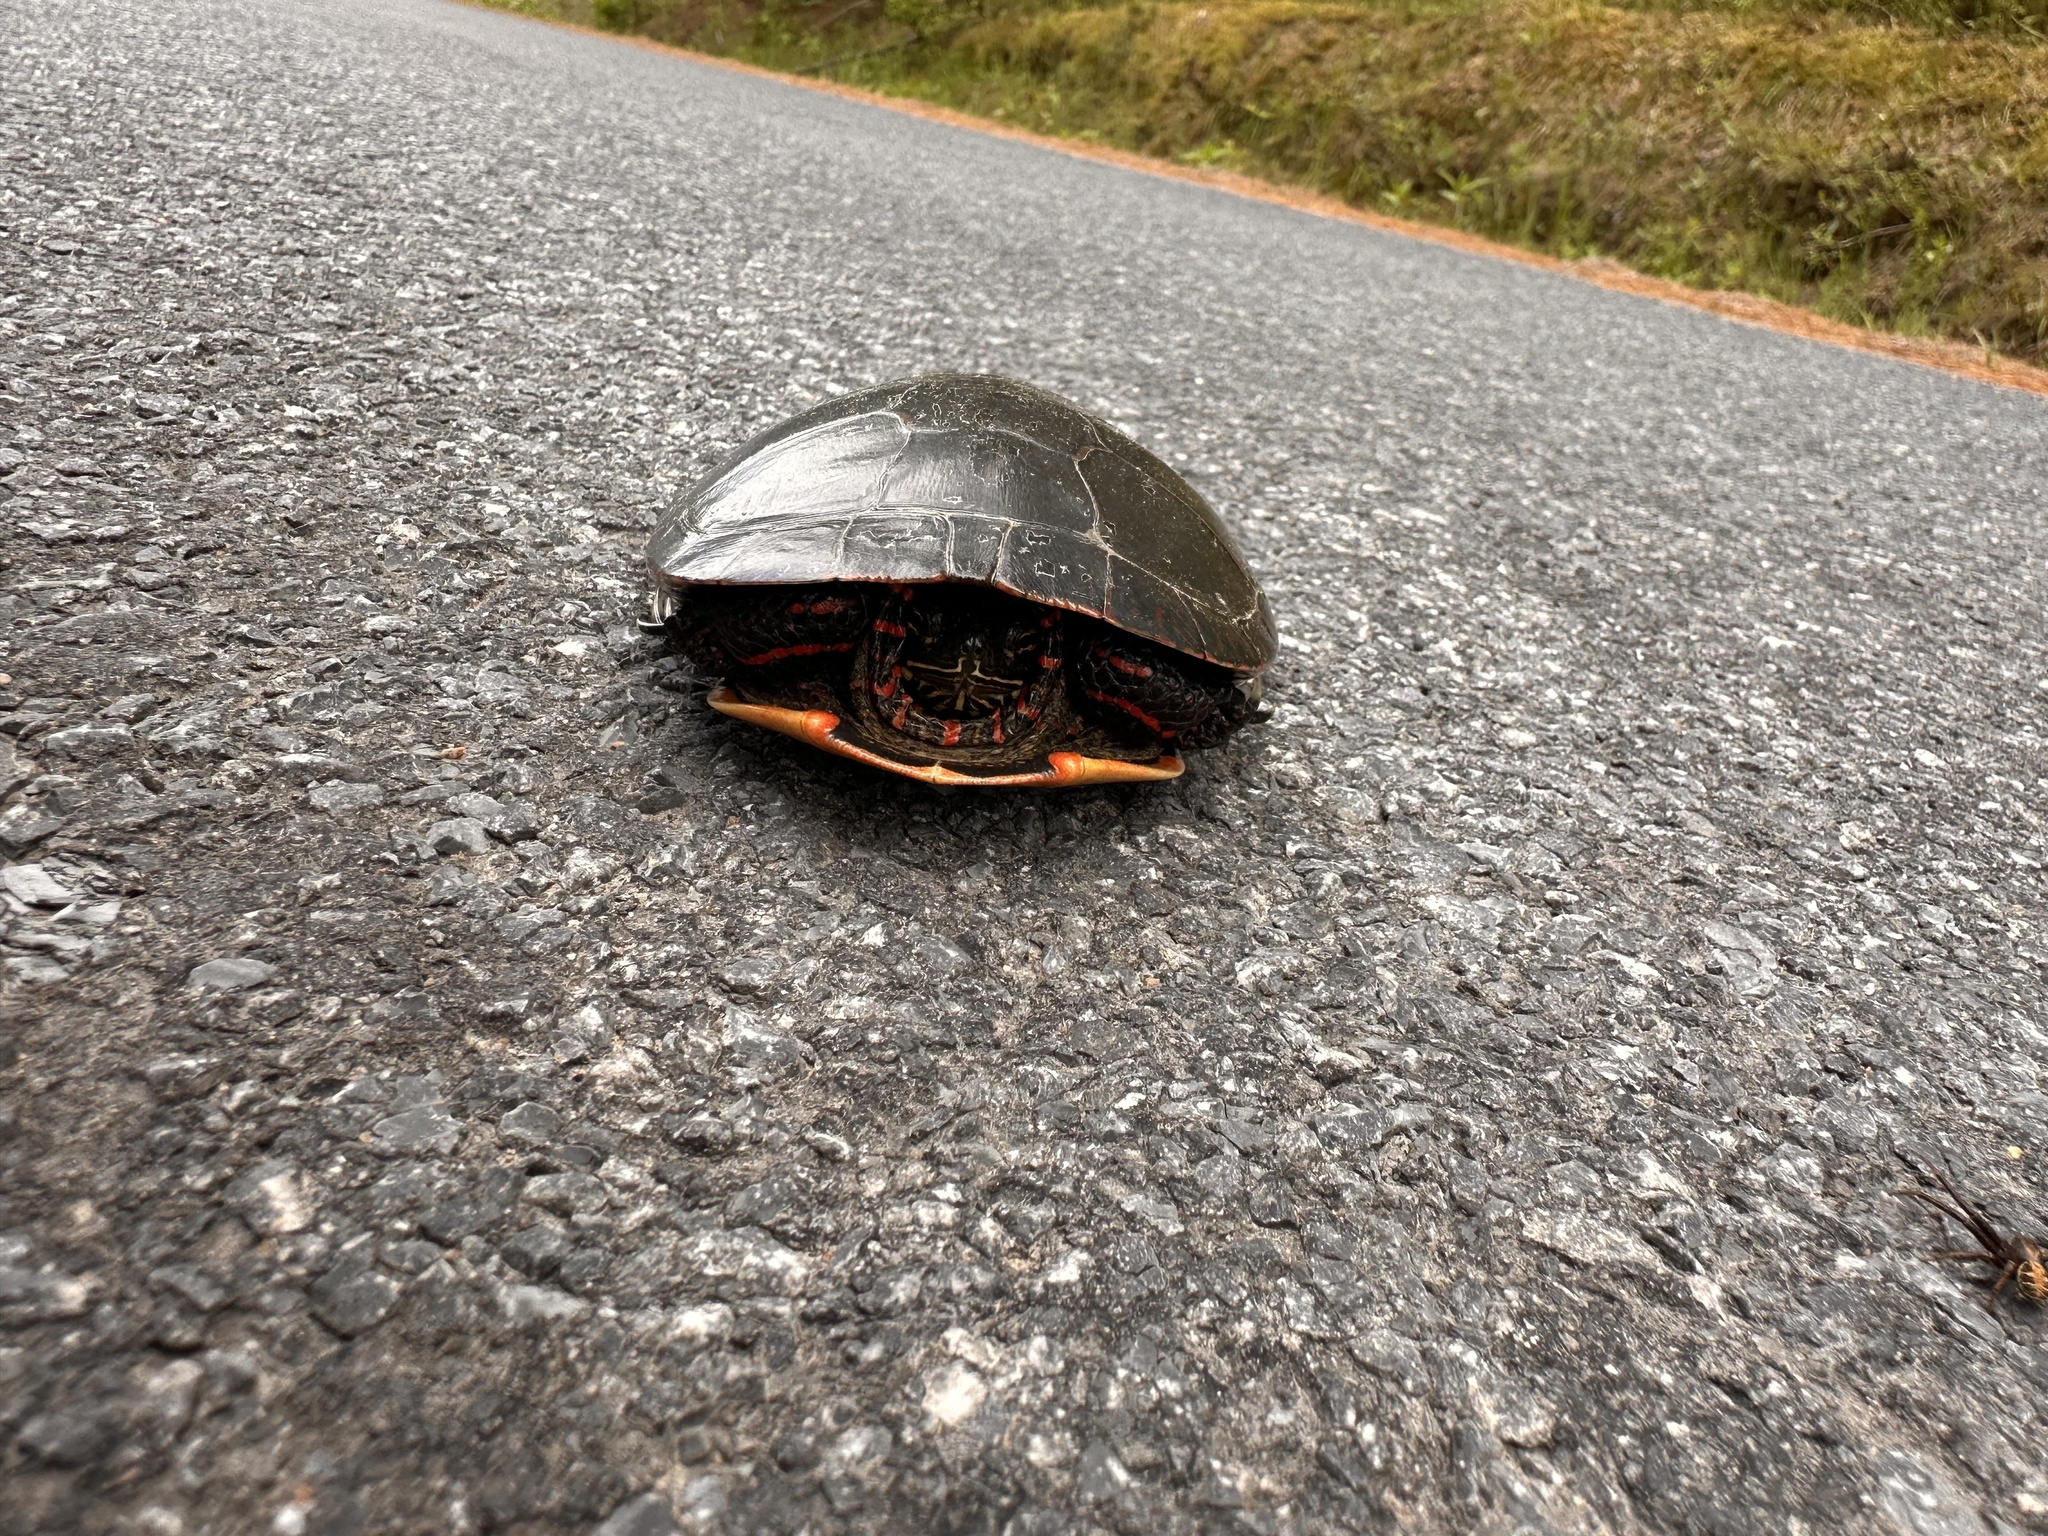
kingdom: Animalia
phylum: Chordata
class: Testudines
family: Emydidae
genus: Chrysemys
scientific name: Chrysemys picta
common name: Painted turtle
